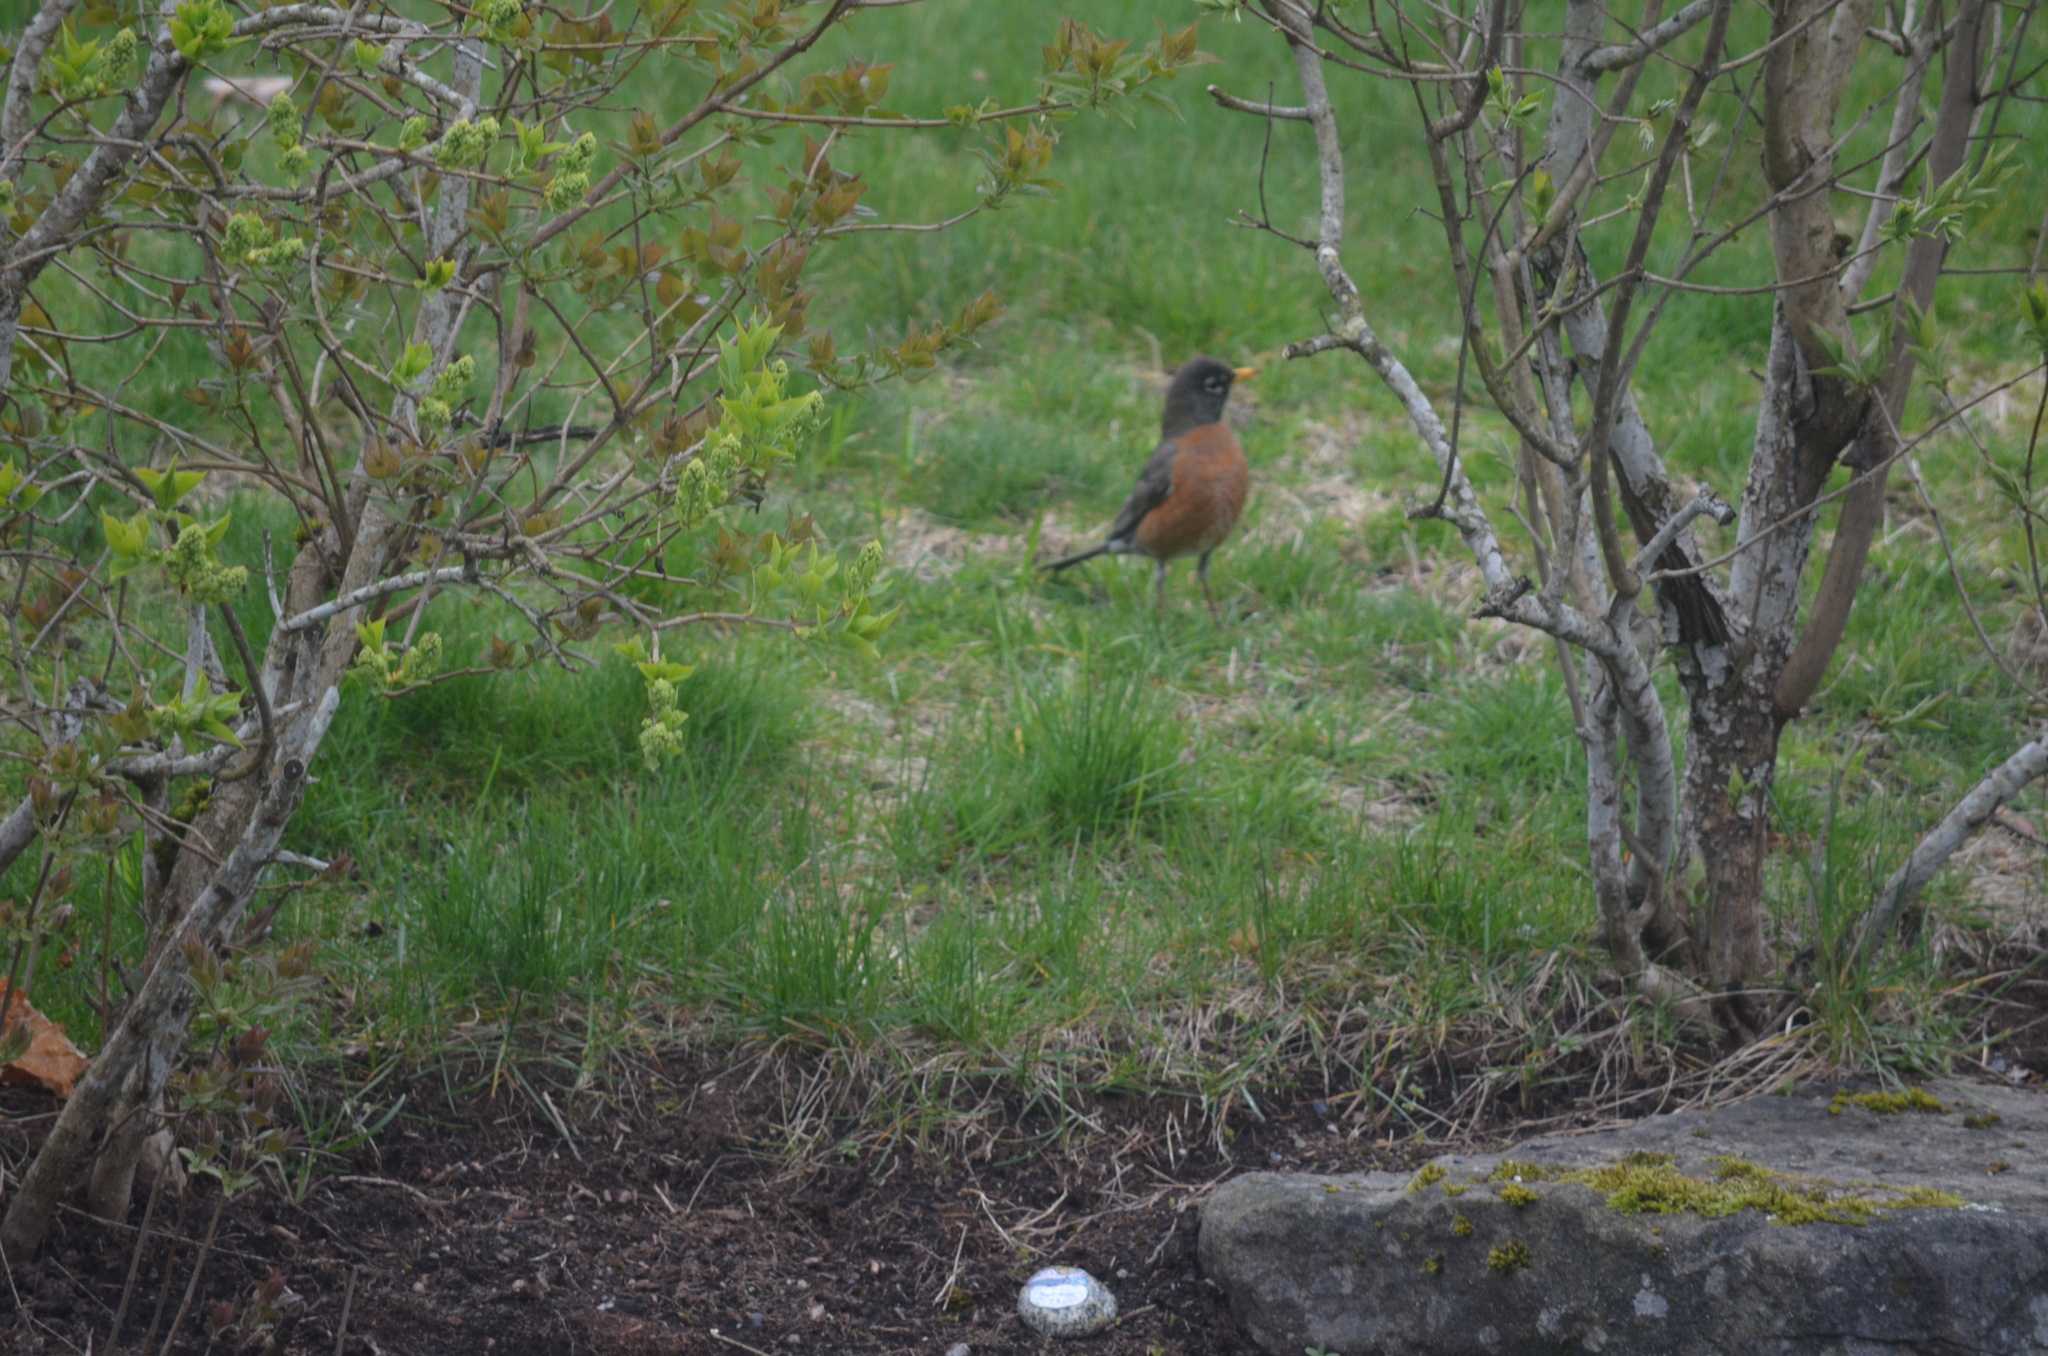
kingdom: Animalia
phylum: Chordata
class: Aves
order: Passeriformes
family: Turdidae
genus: Turdus
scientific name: Turdus migratorius
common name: American robin
